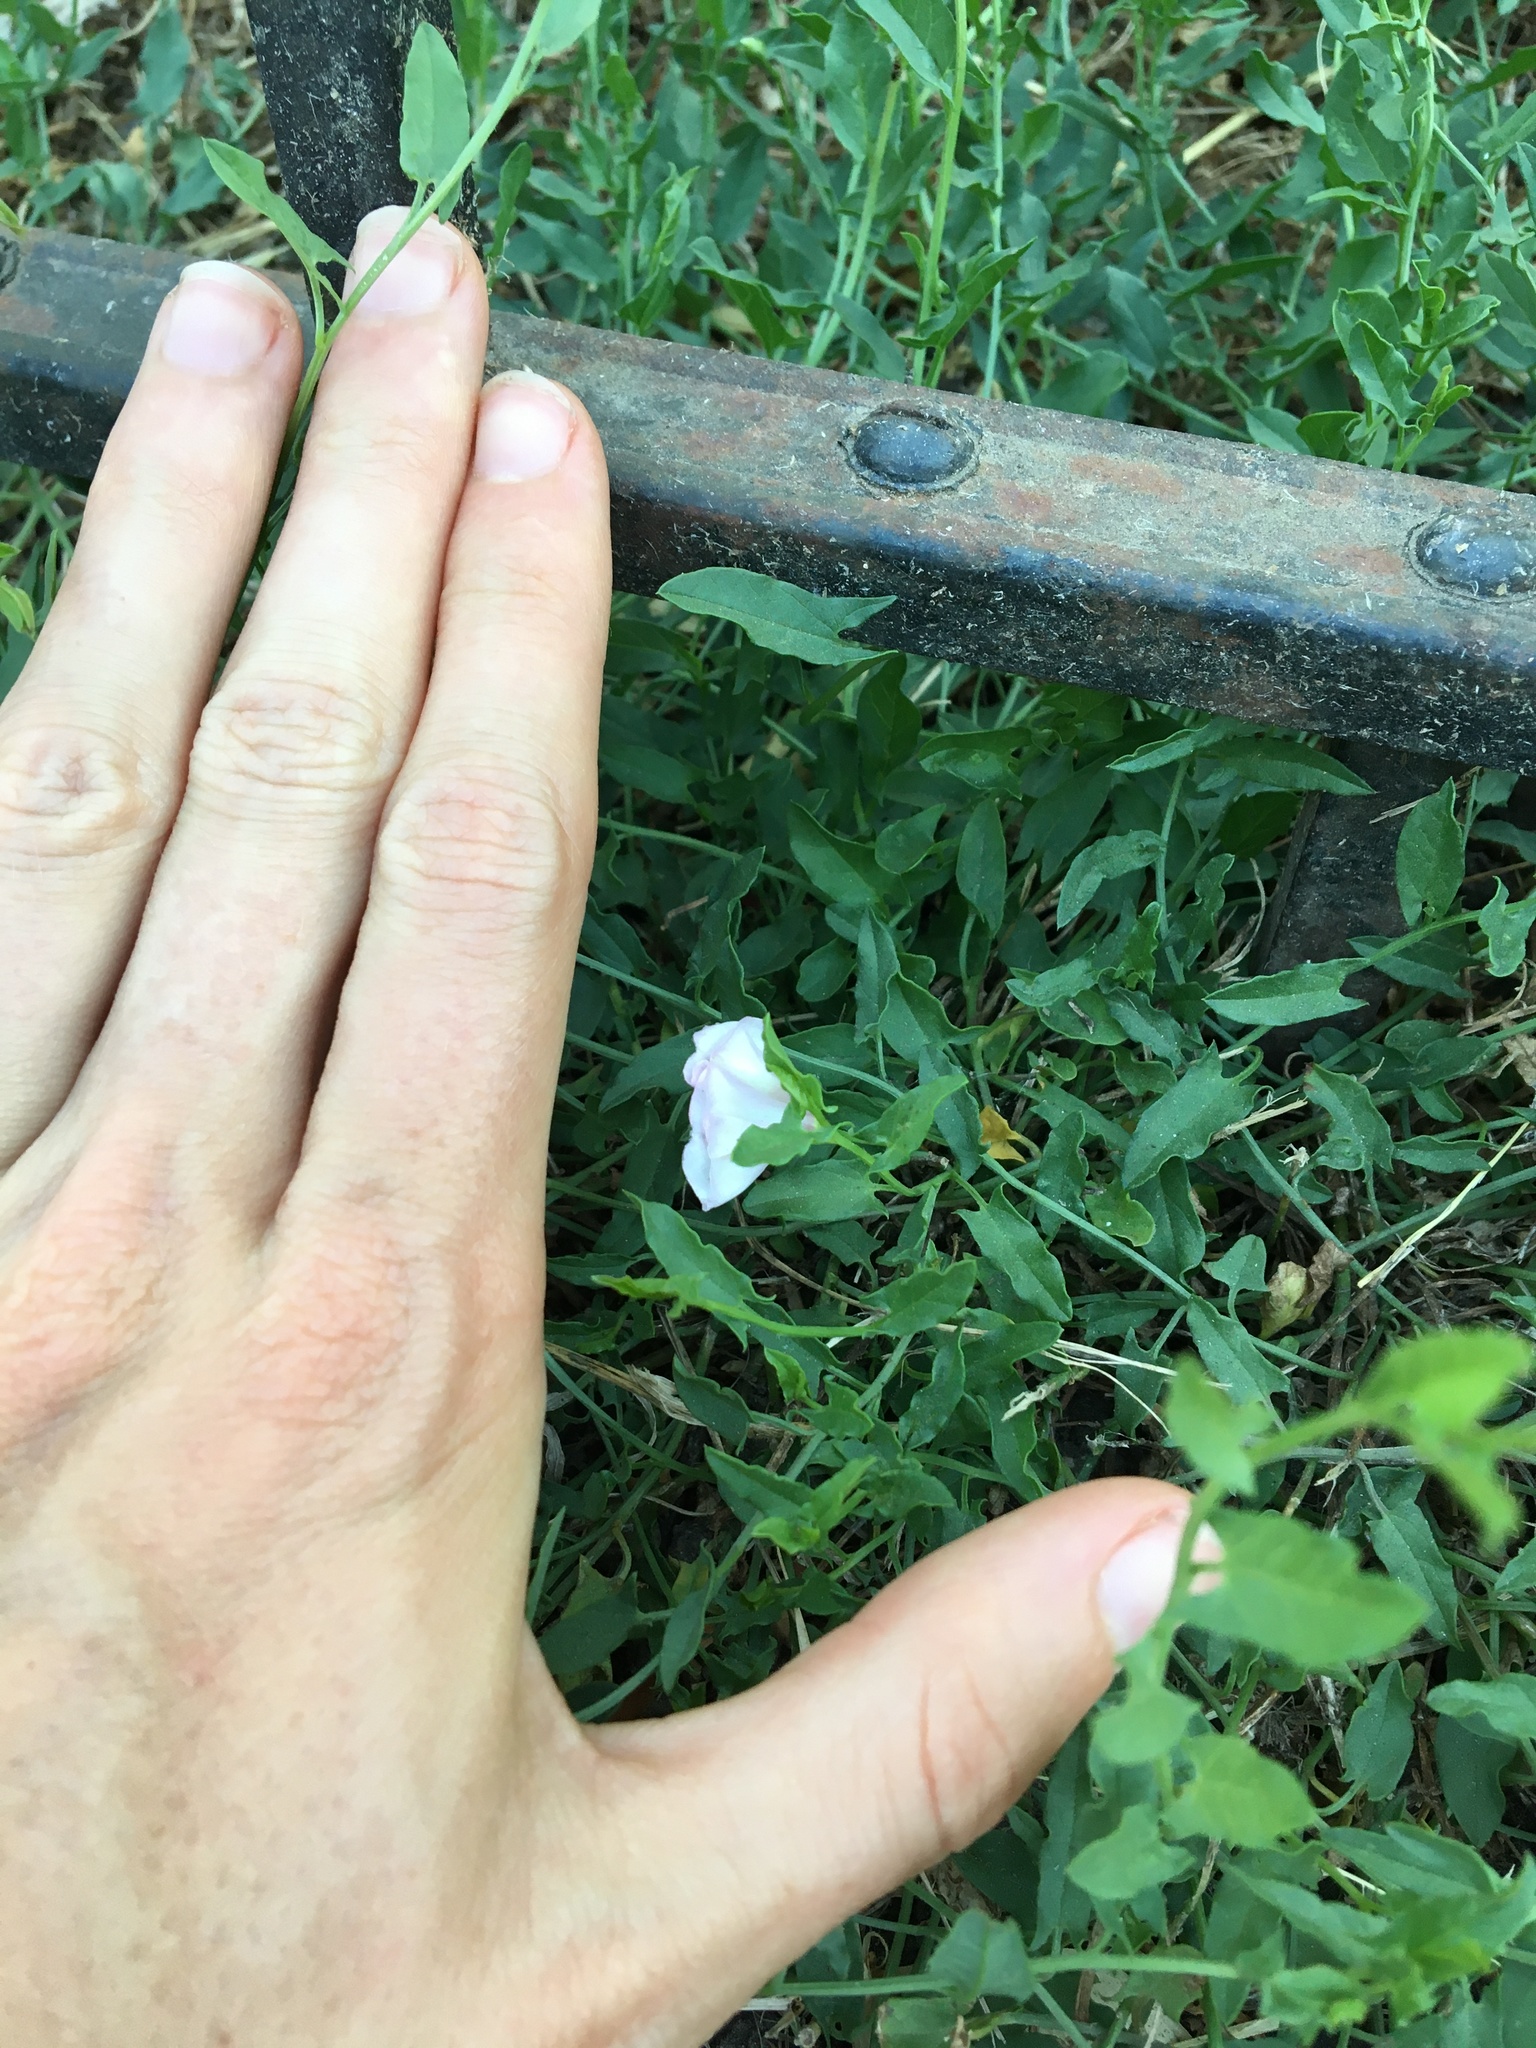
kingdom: Plantae
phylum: Tracheophyta
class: Magnoliopsida
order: Solanales
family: Convolvulaceae
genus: Convolvulus
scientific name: Convolvulus arvensis
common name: Field bindweed
